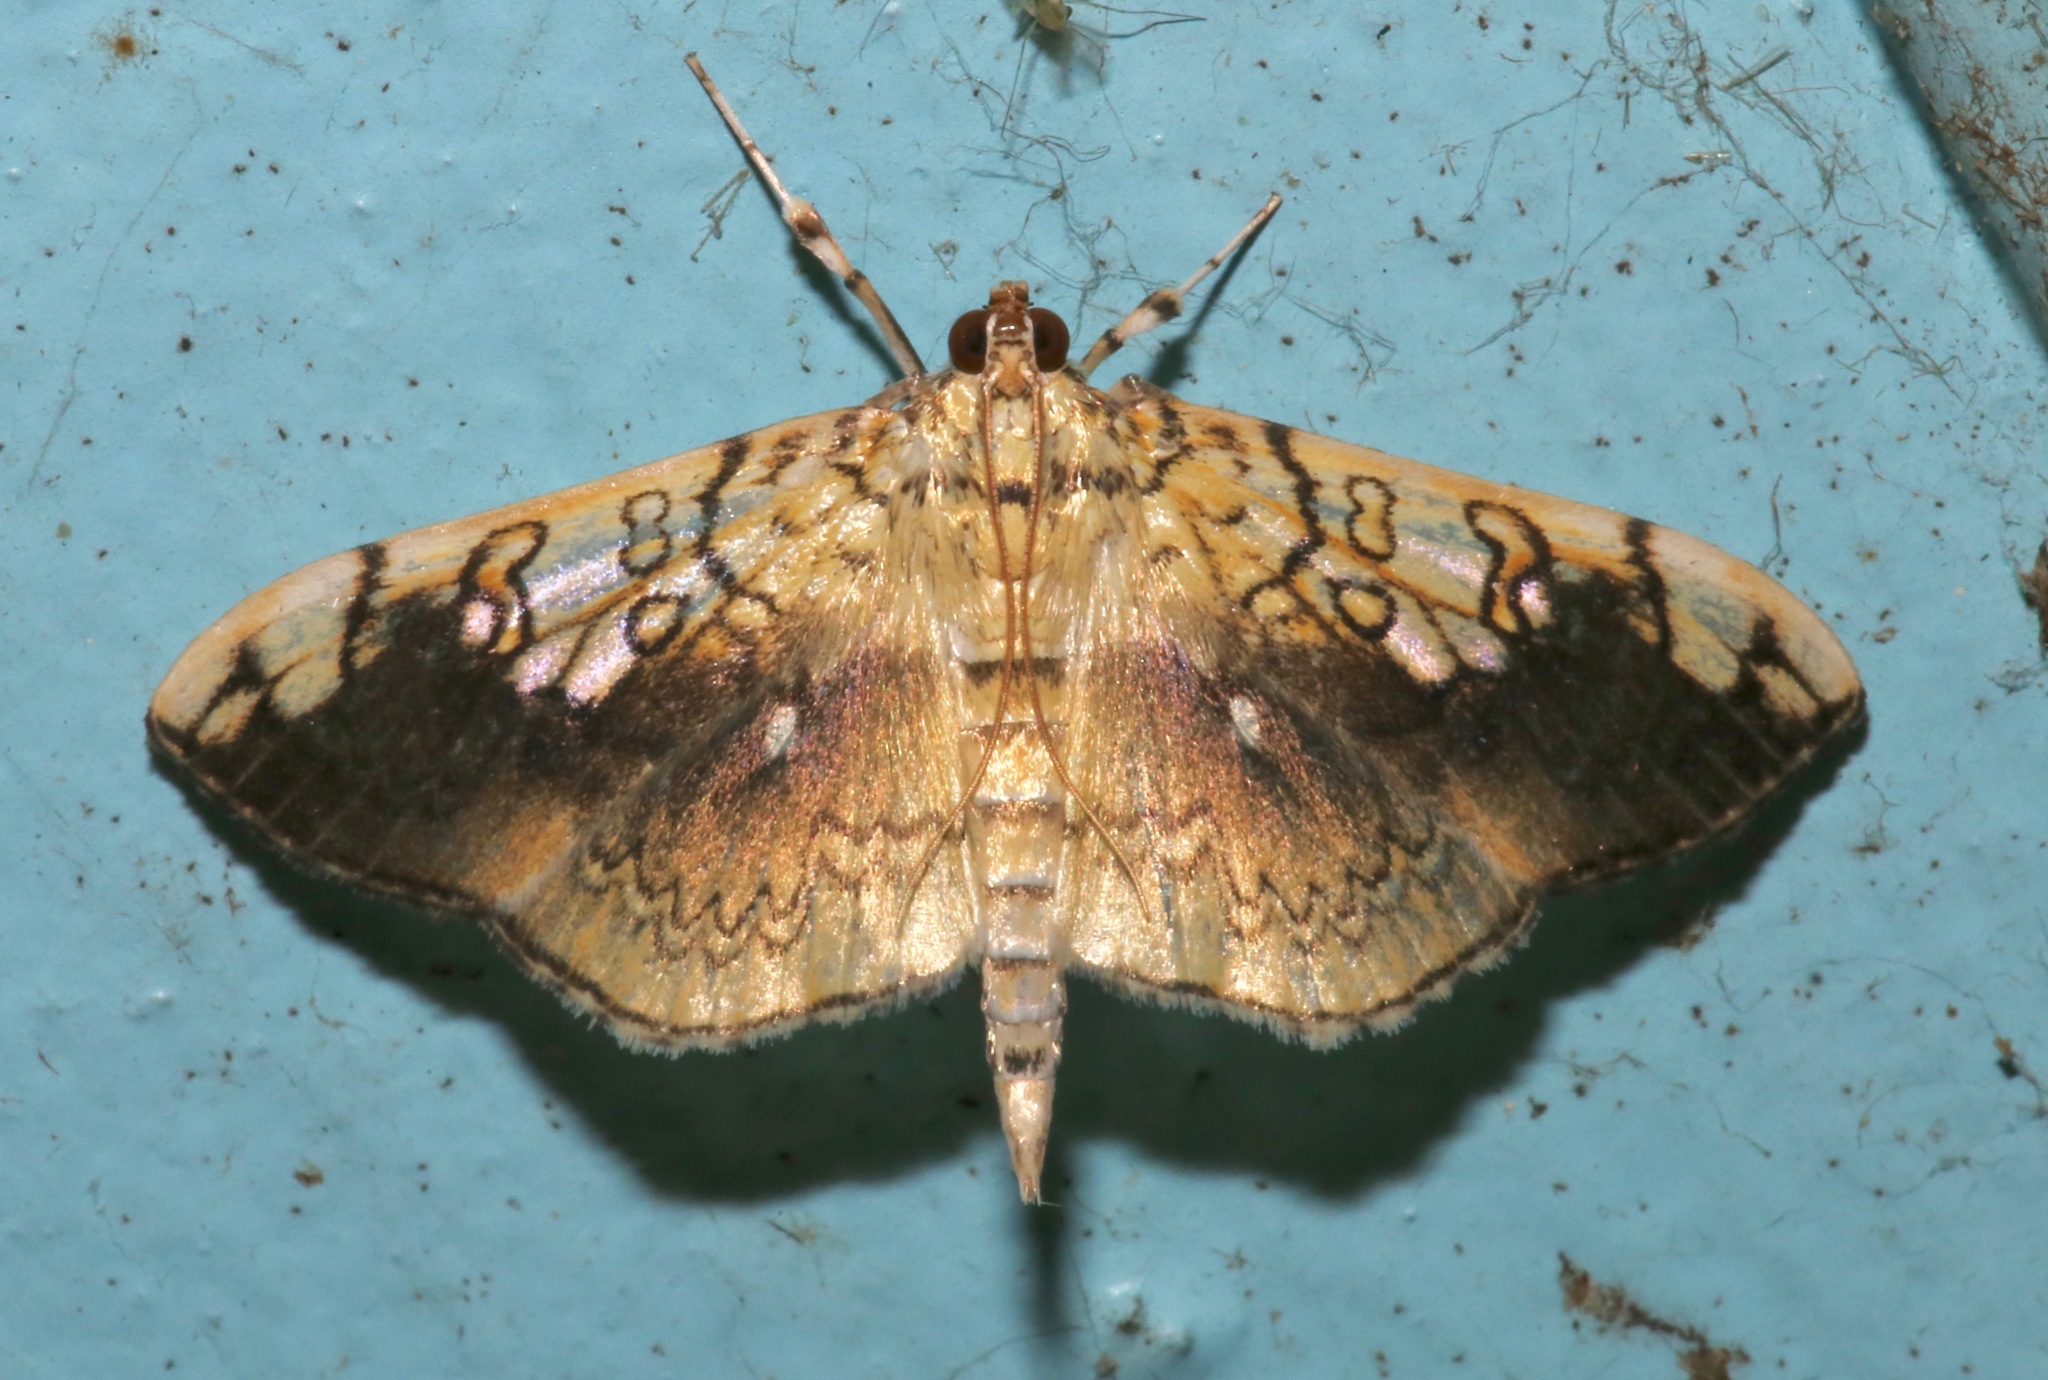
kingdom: Animalia
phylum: Arthropoda
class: Insecta
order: Lepidoptera
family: Crambidae
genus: Pantographa
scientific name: Pantographa limata
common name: Basswood leafroller moth
